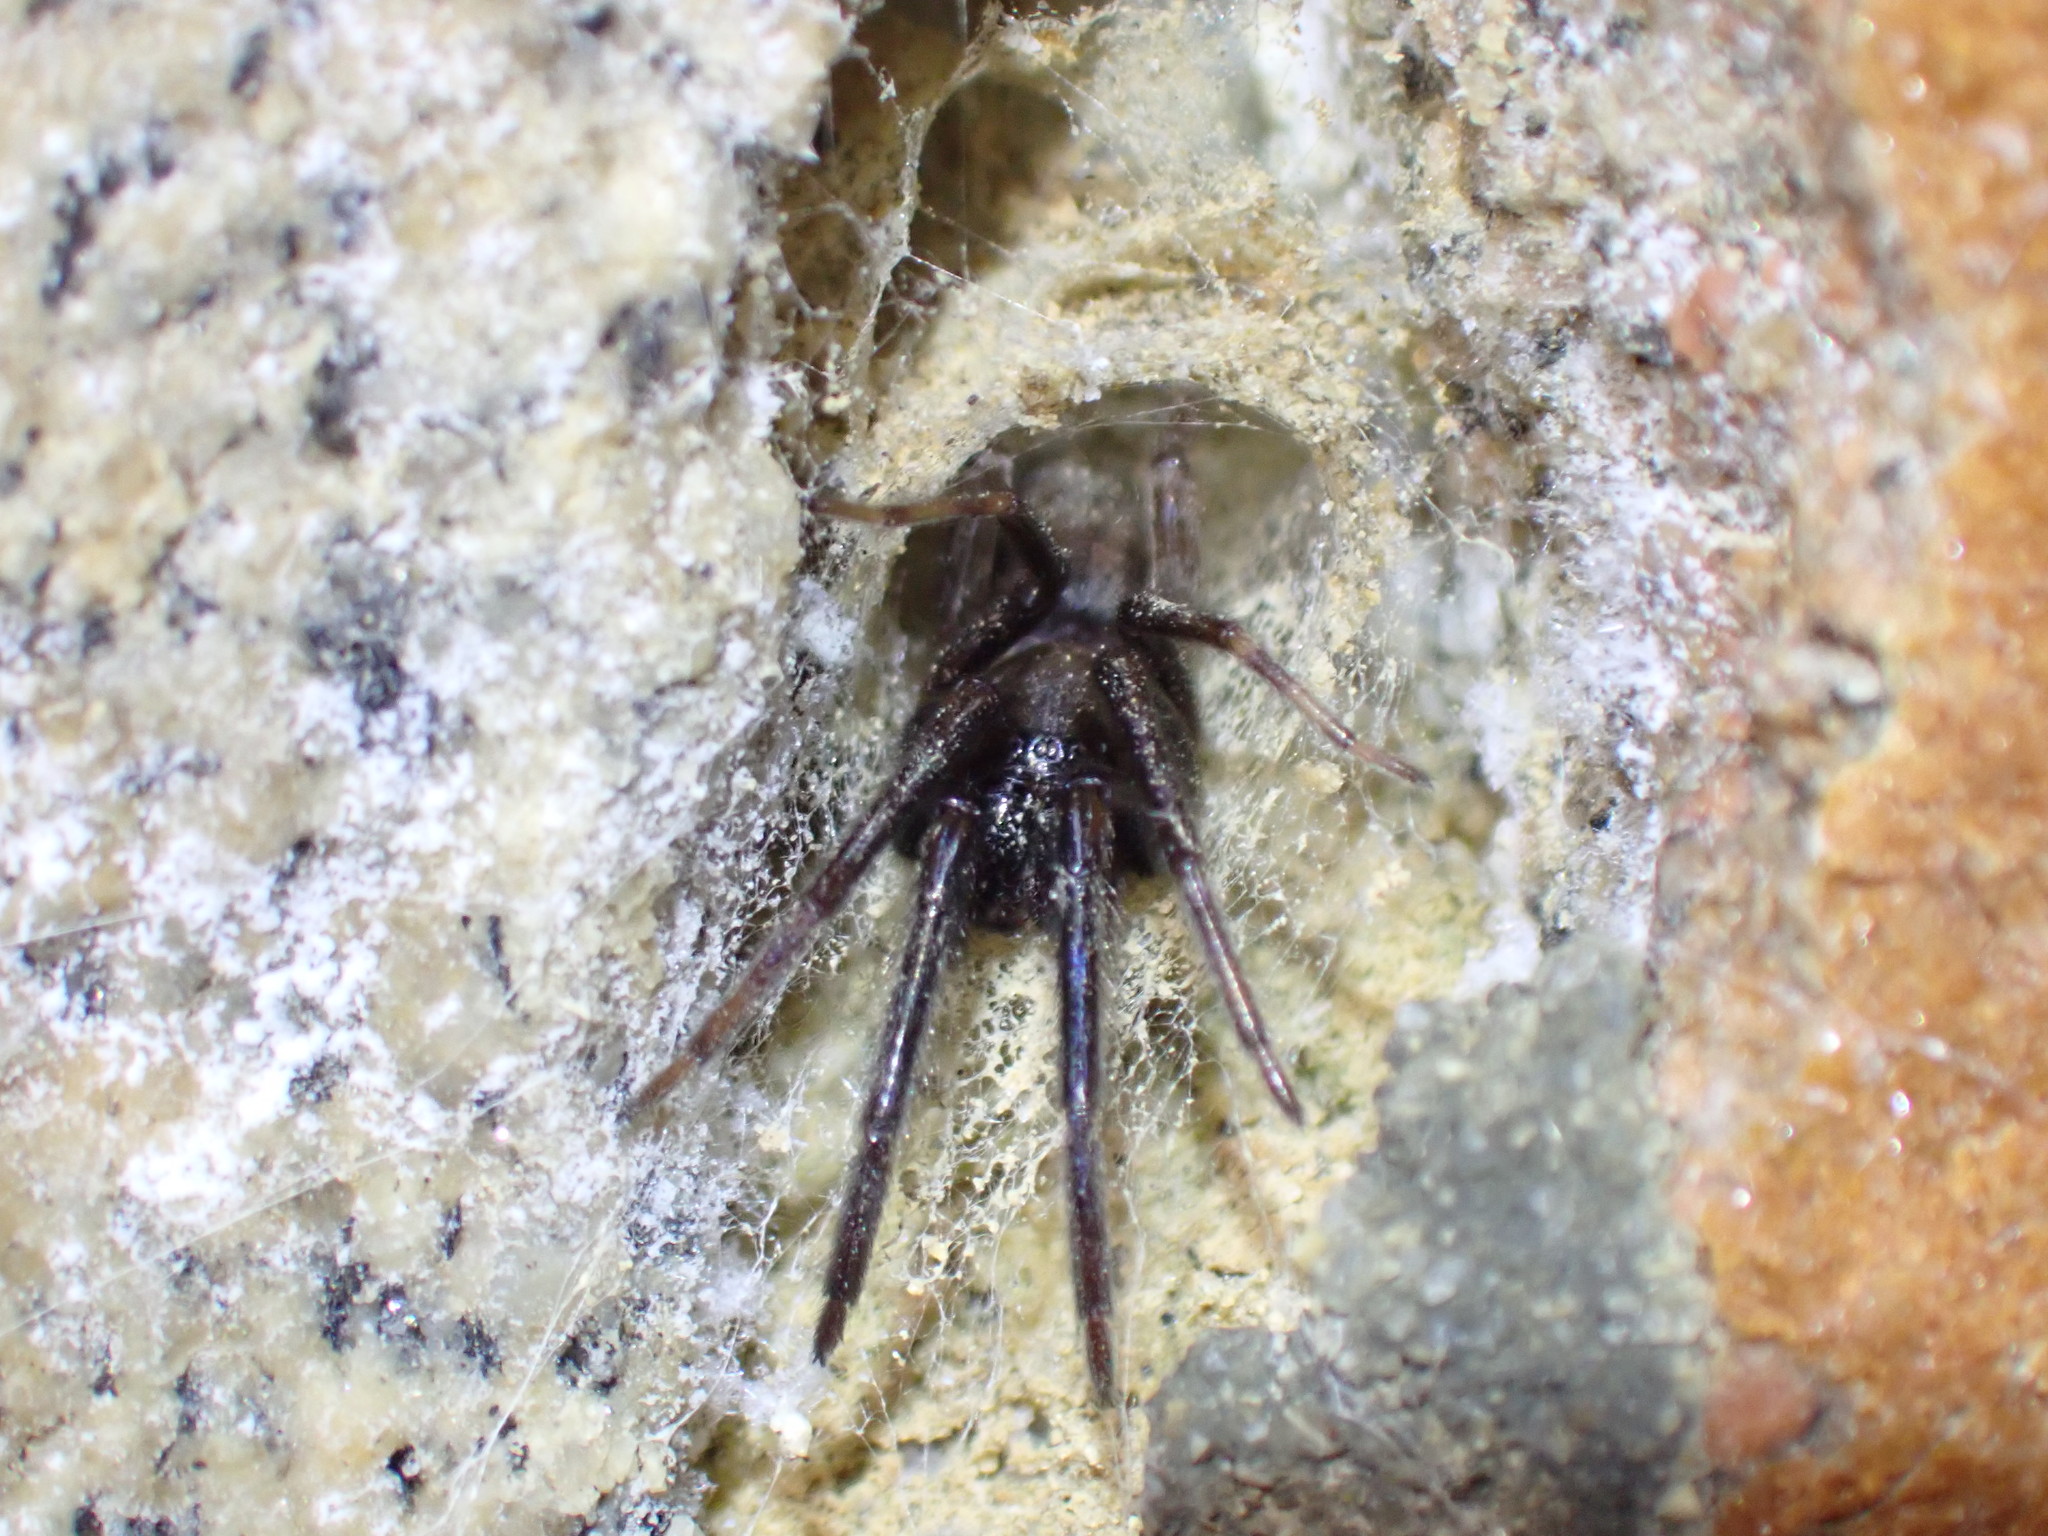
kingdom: Animalia
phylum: Arthropoda
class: Arachnida
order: Araneae
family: Segestriidae
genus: Segestria
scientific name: Segestria florentina
